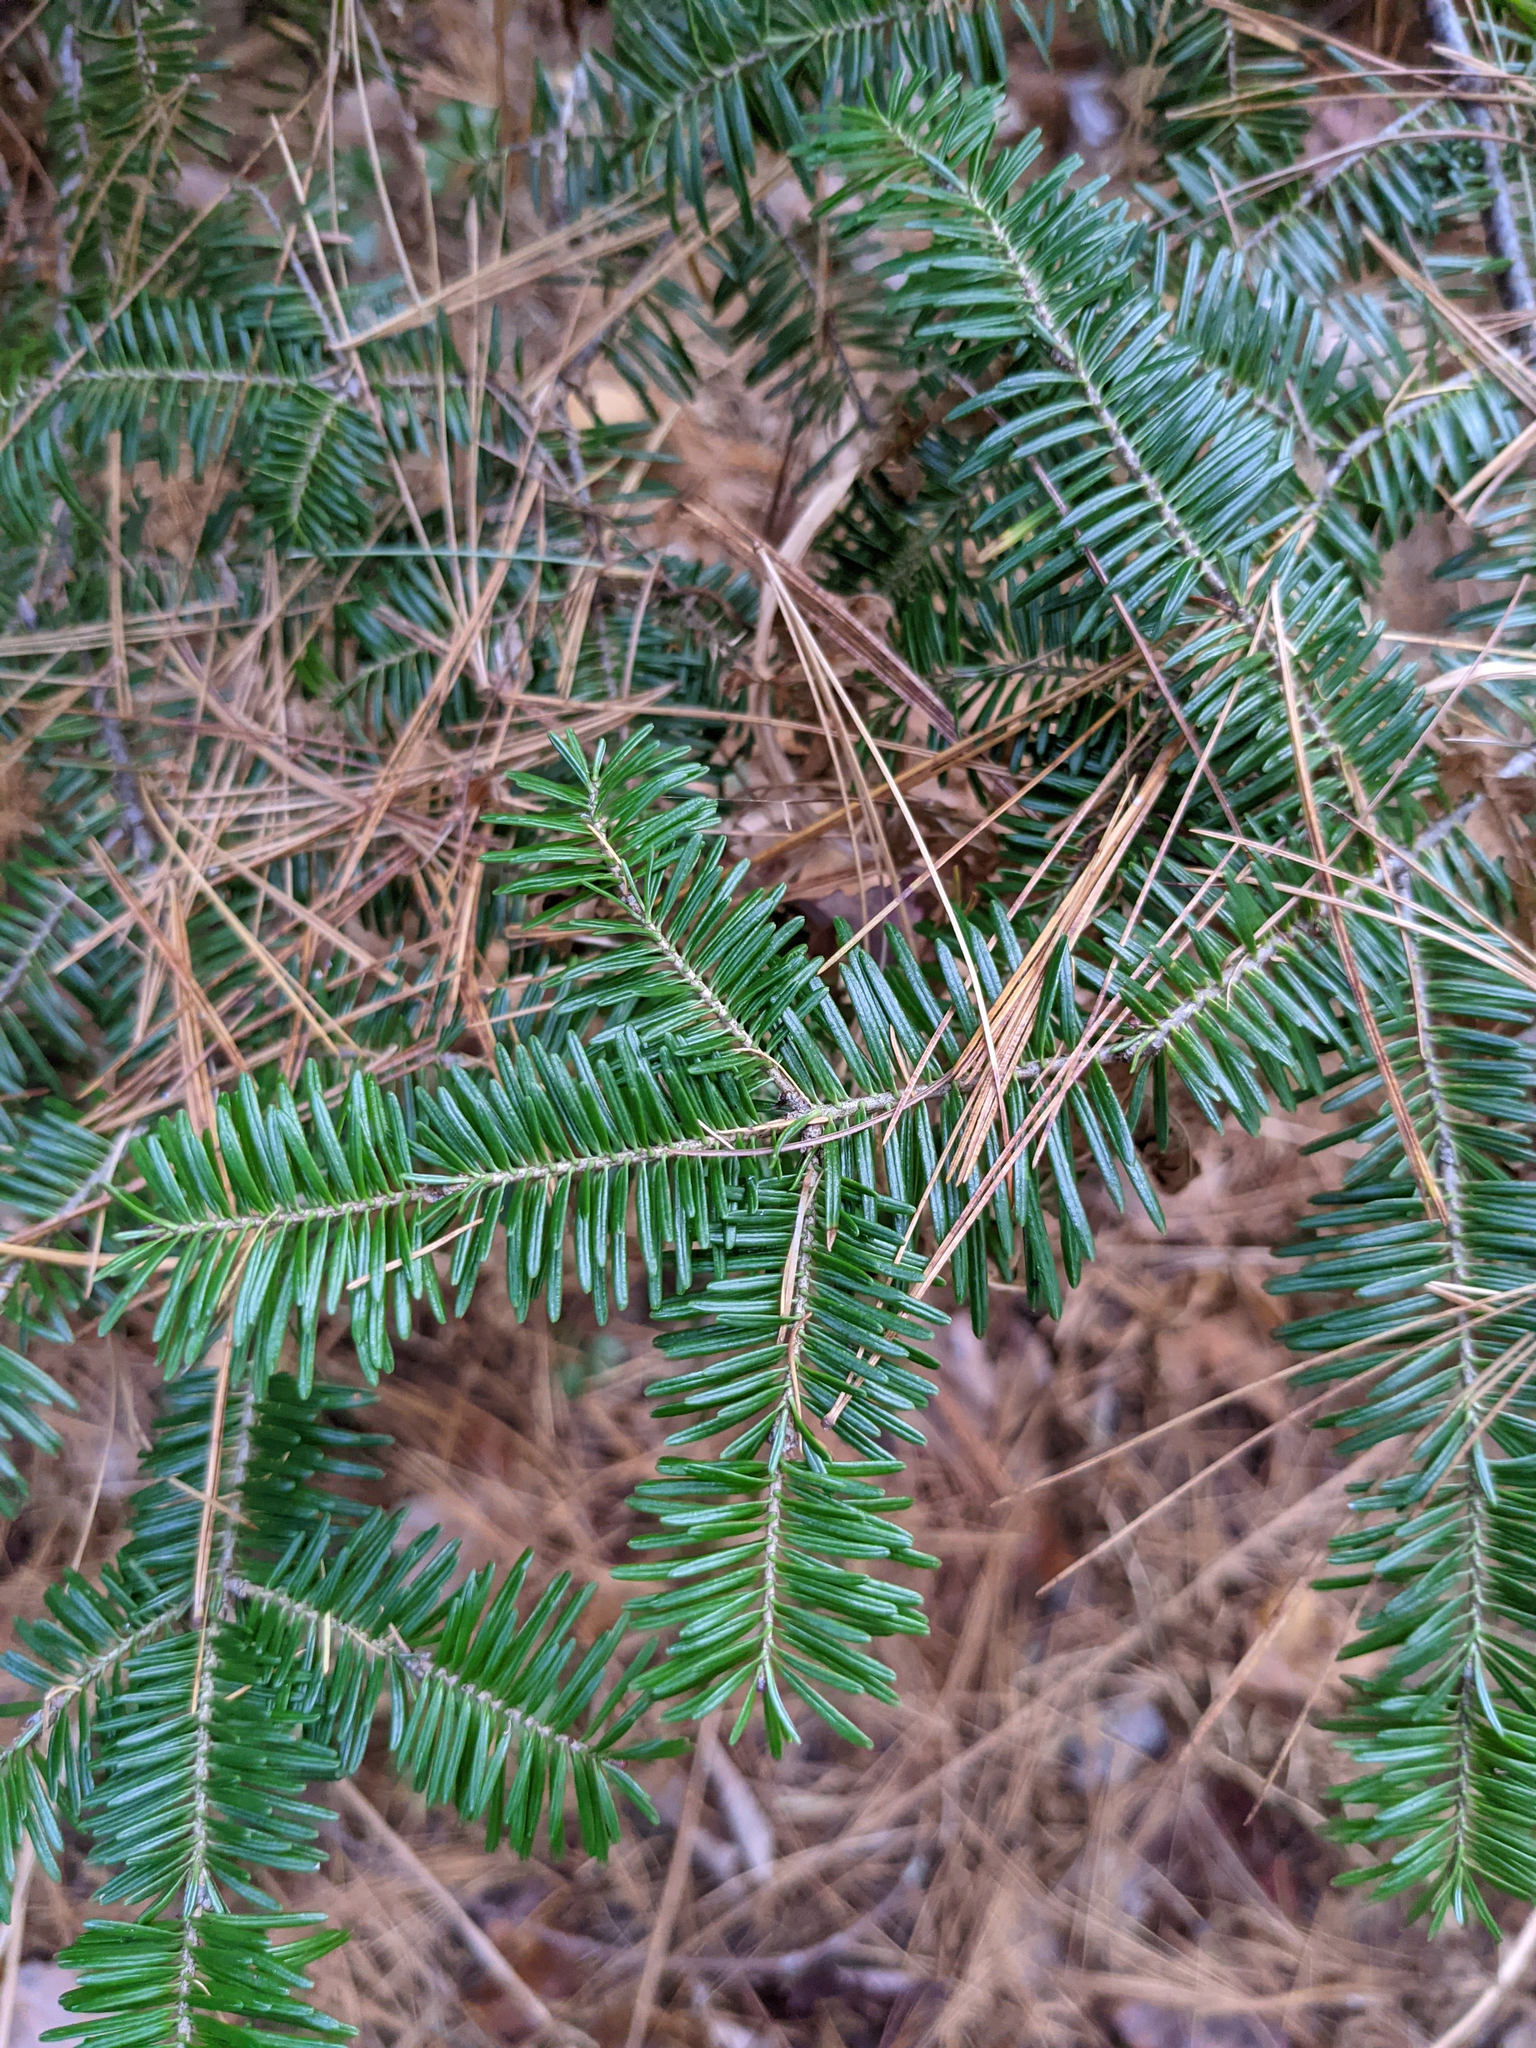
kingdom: Plantae
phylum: Tracheophyta
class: Pinopsida
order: Pinales
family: Pinaceae
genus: Abies
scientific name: Abies balsamea
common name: Balsam fir
